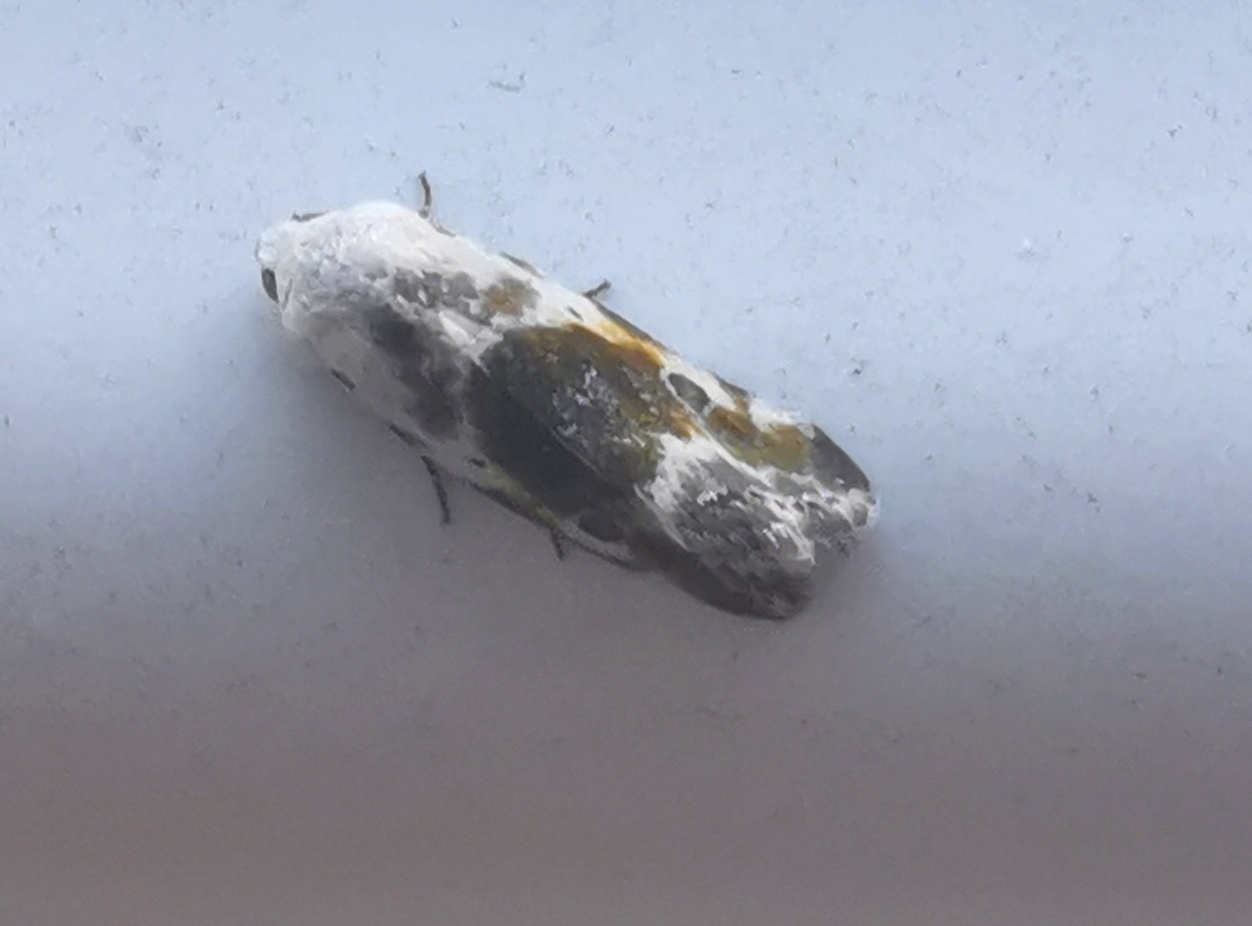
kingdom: Animalia
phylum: Arthropoda
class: Insecta
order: Lepidoptera
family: Noctuidae
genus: Acontia
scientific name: Acontia candefacta
